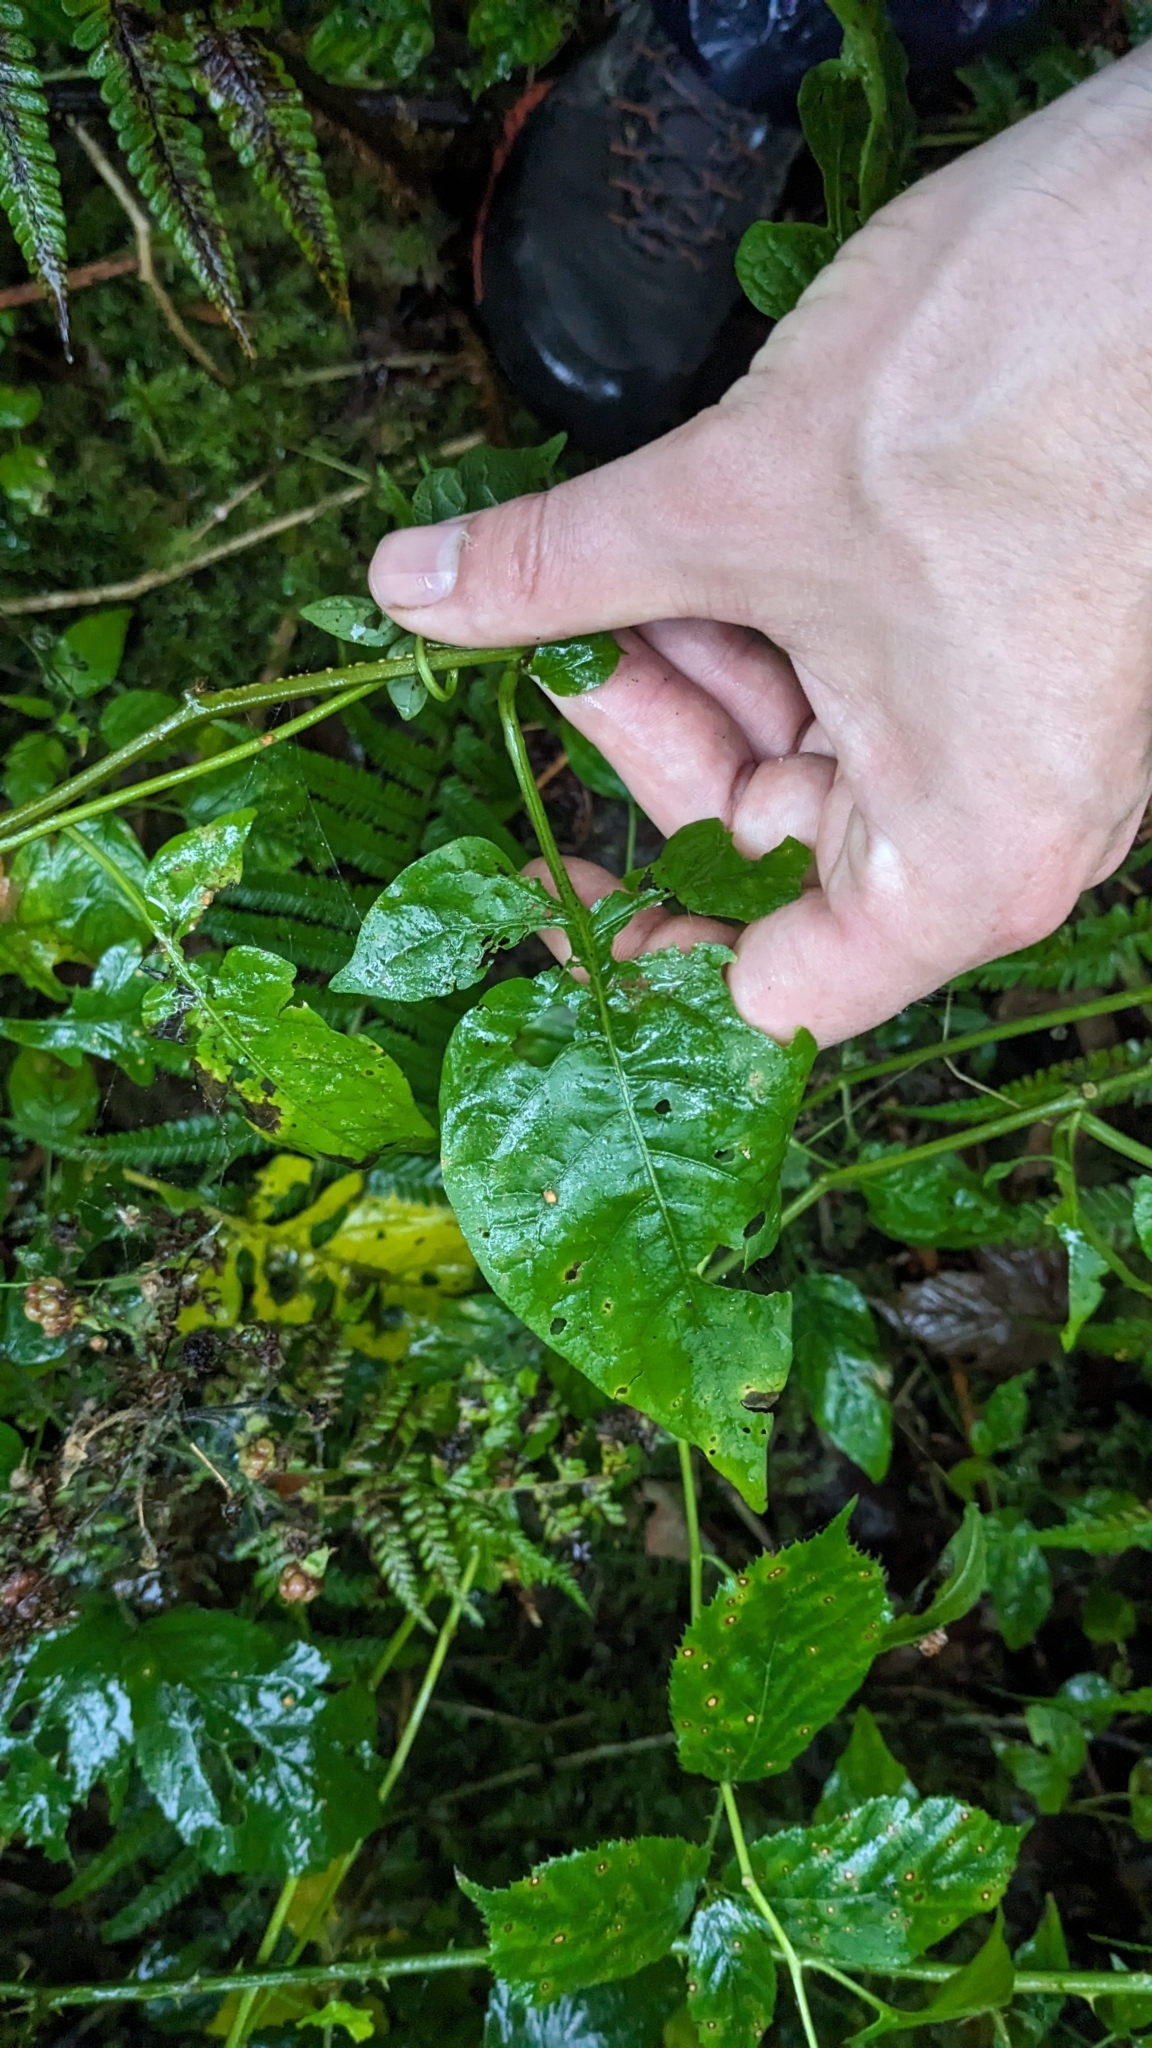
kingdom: Plantae
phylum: Tracheophyta
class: Magnoliopsida
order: Solanales
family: Solanaceae
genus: Solanum
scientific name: Solanum dulcamara
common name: Climbing nightshade
